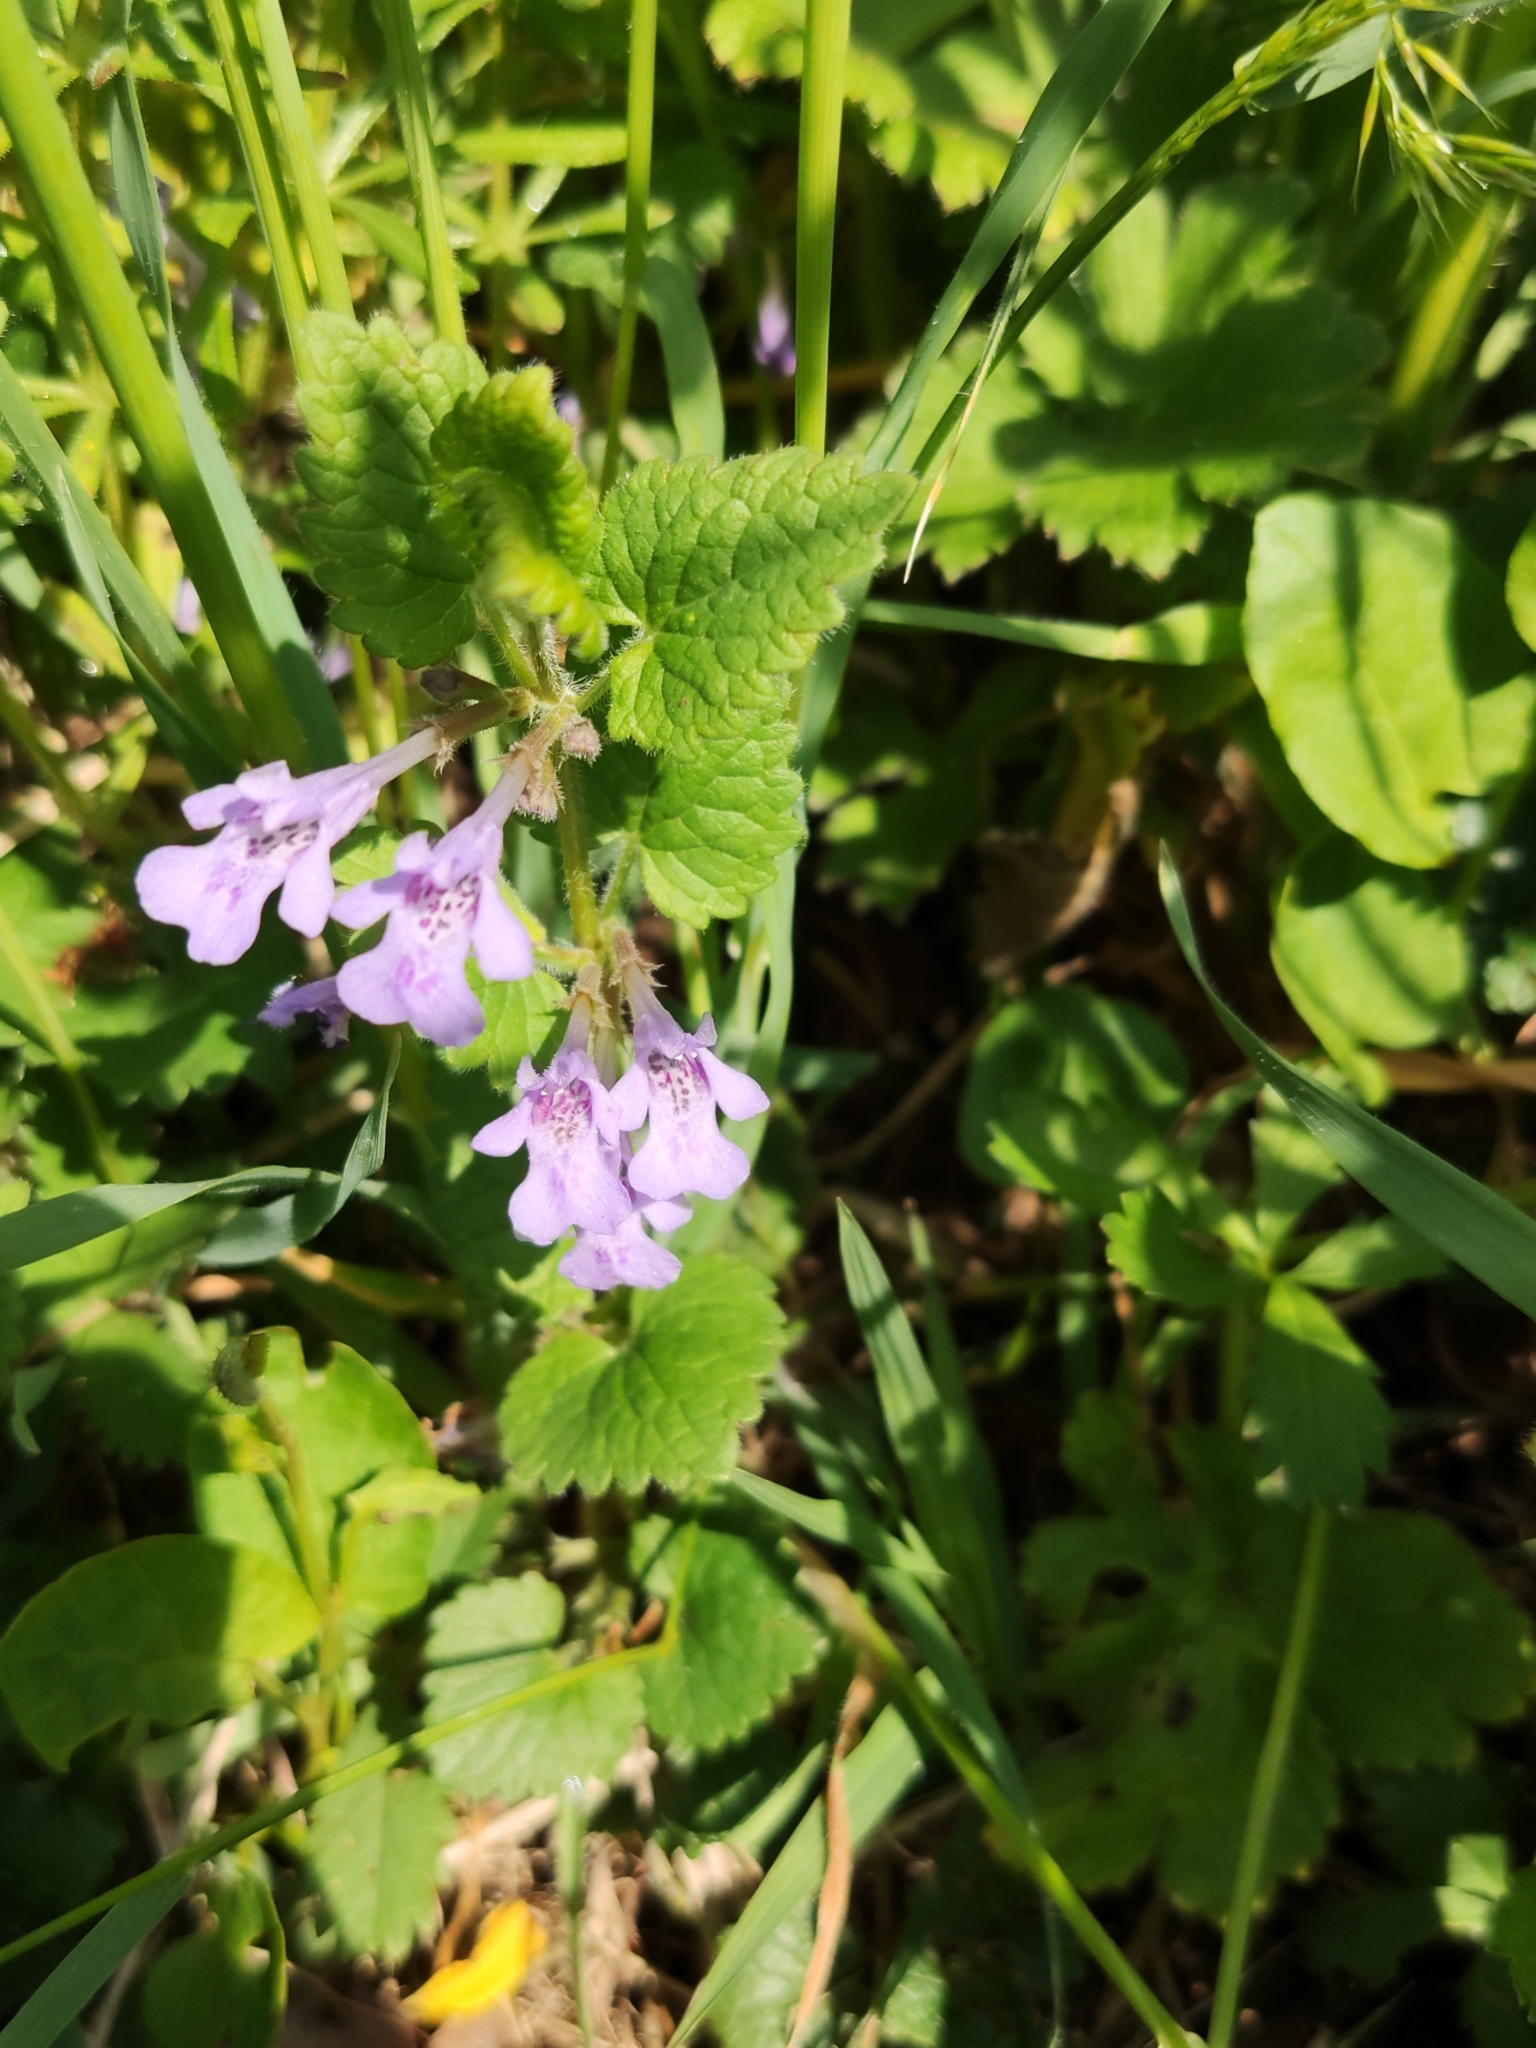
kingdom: Plantae
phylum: Tracheophyta
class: Magnoliopsida
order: Lamiales
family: Lamiaceae
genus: Glechoma
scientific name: Glechoma hederacea
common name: Ground ivy
